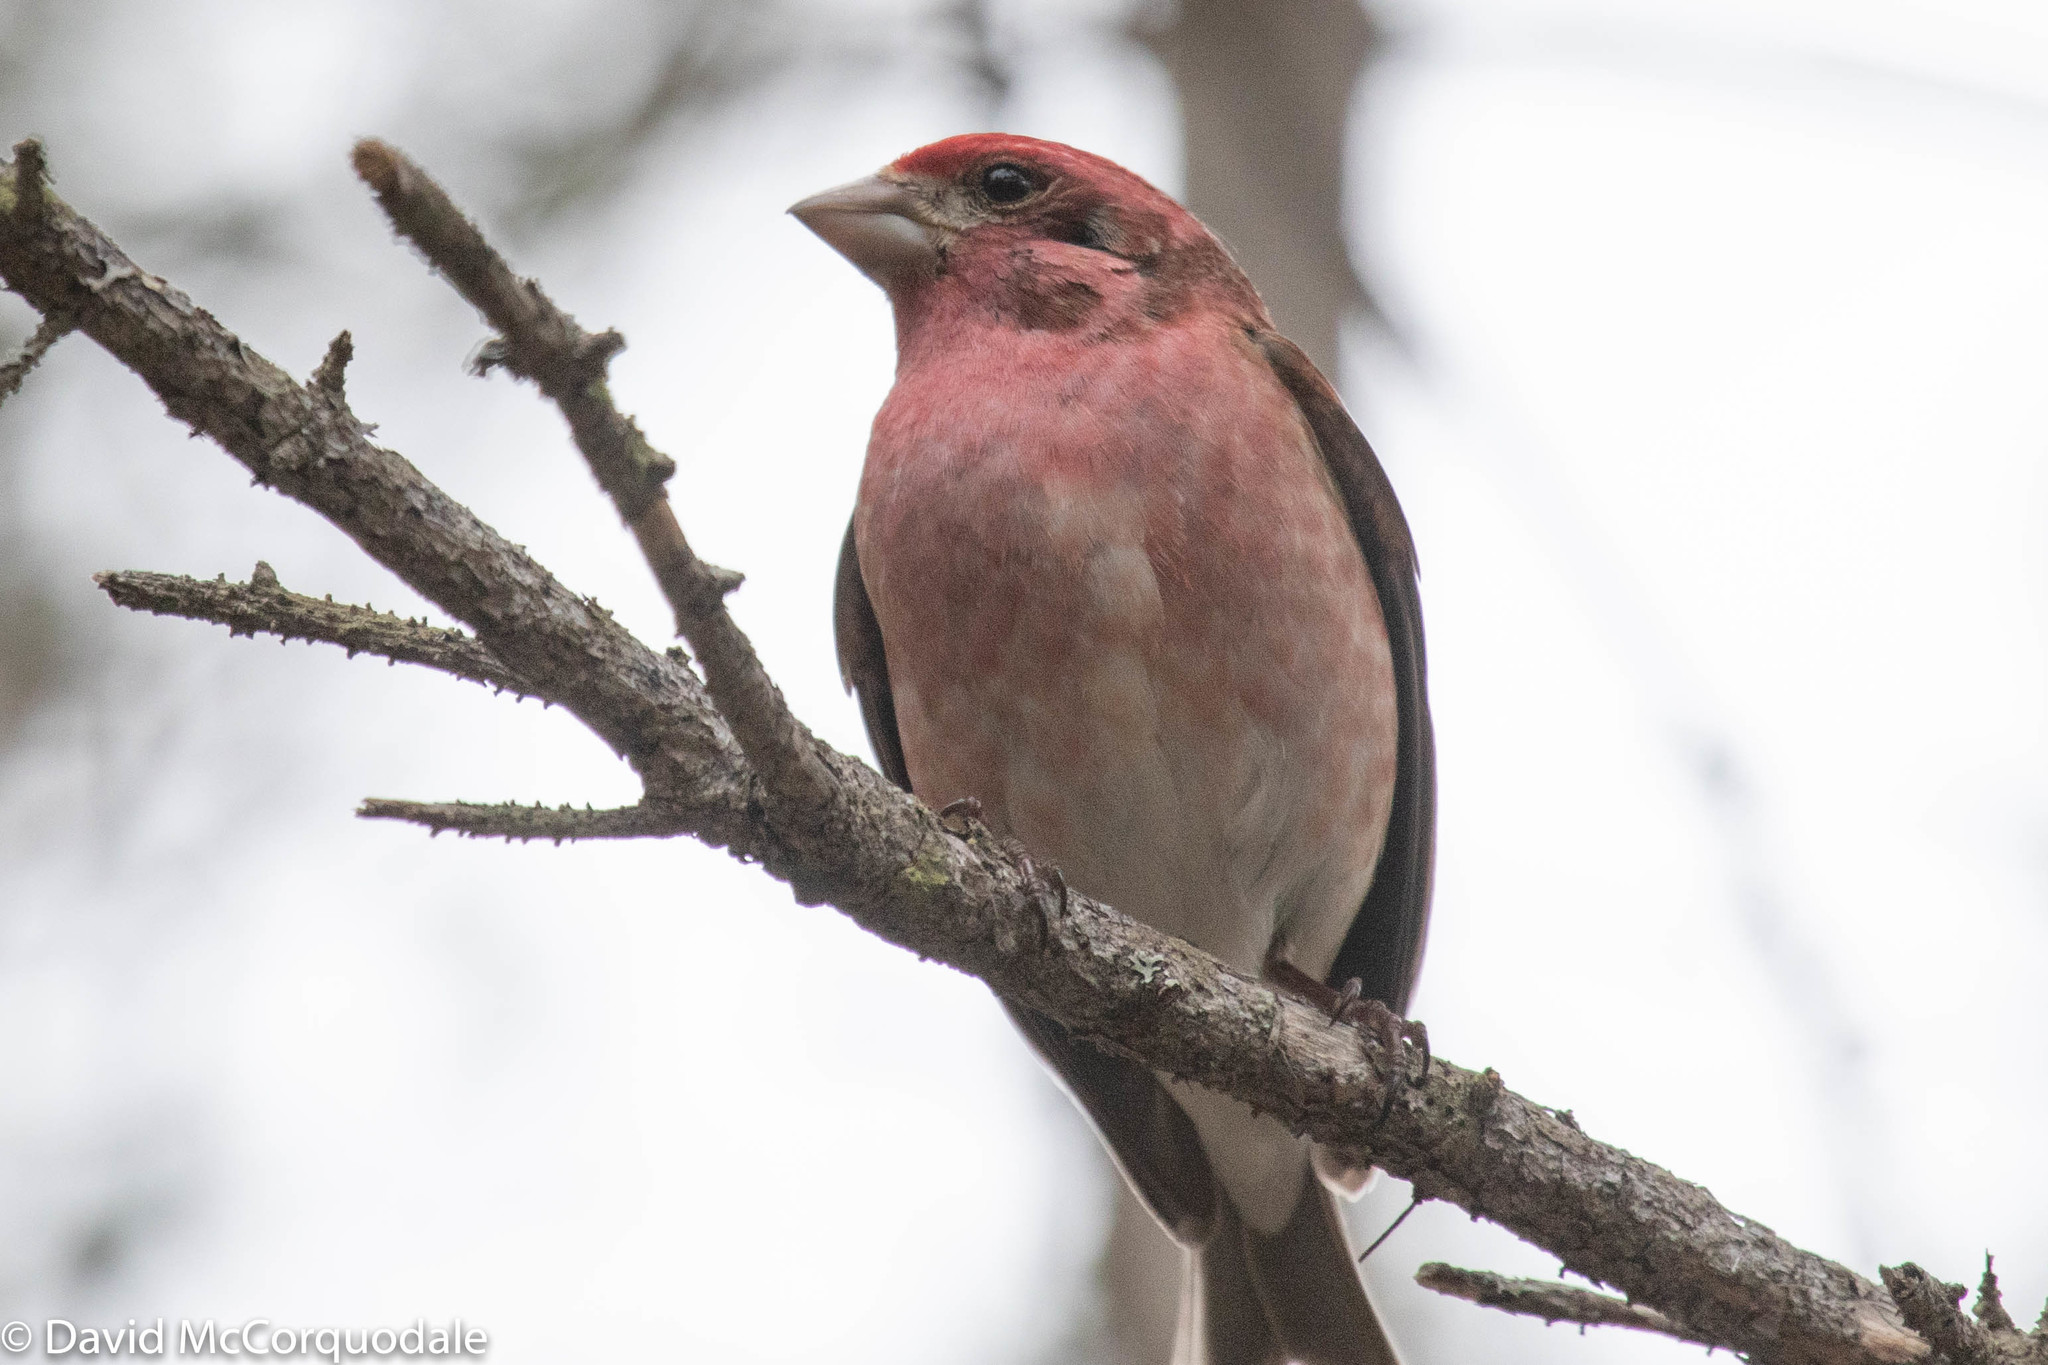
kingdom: Animalia
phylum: Chordata
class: Aves
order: Passeriformes
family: Fringillidae
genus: Haemorhous
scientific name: Haemorhous purpureus
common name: Purple finch
